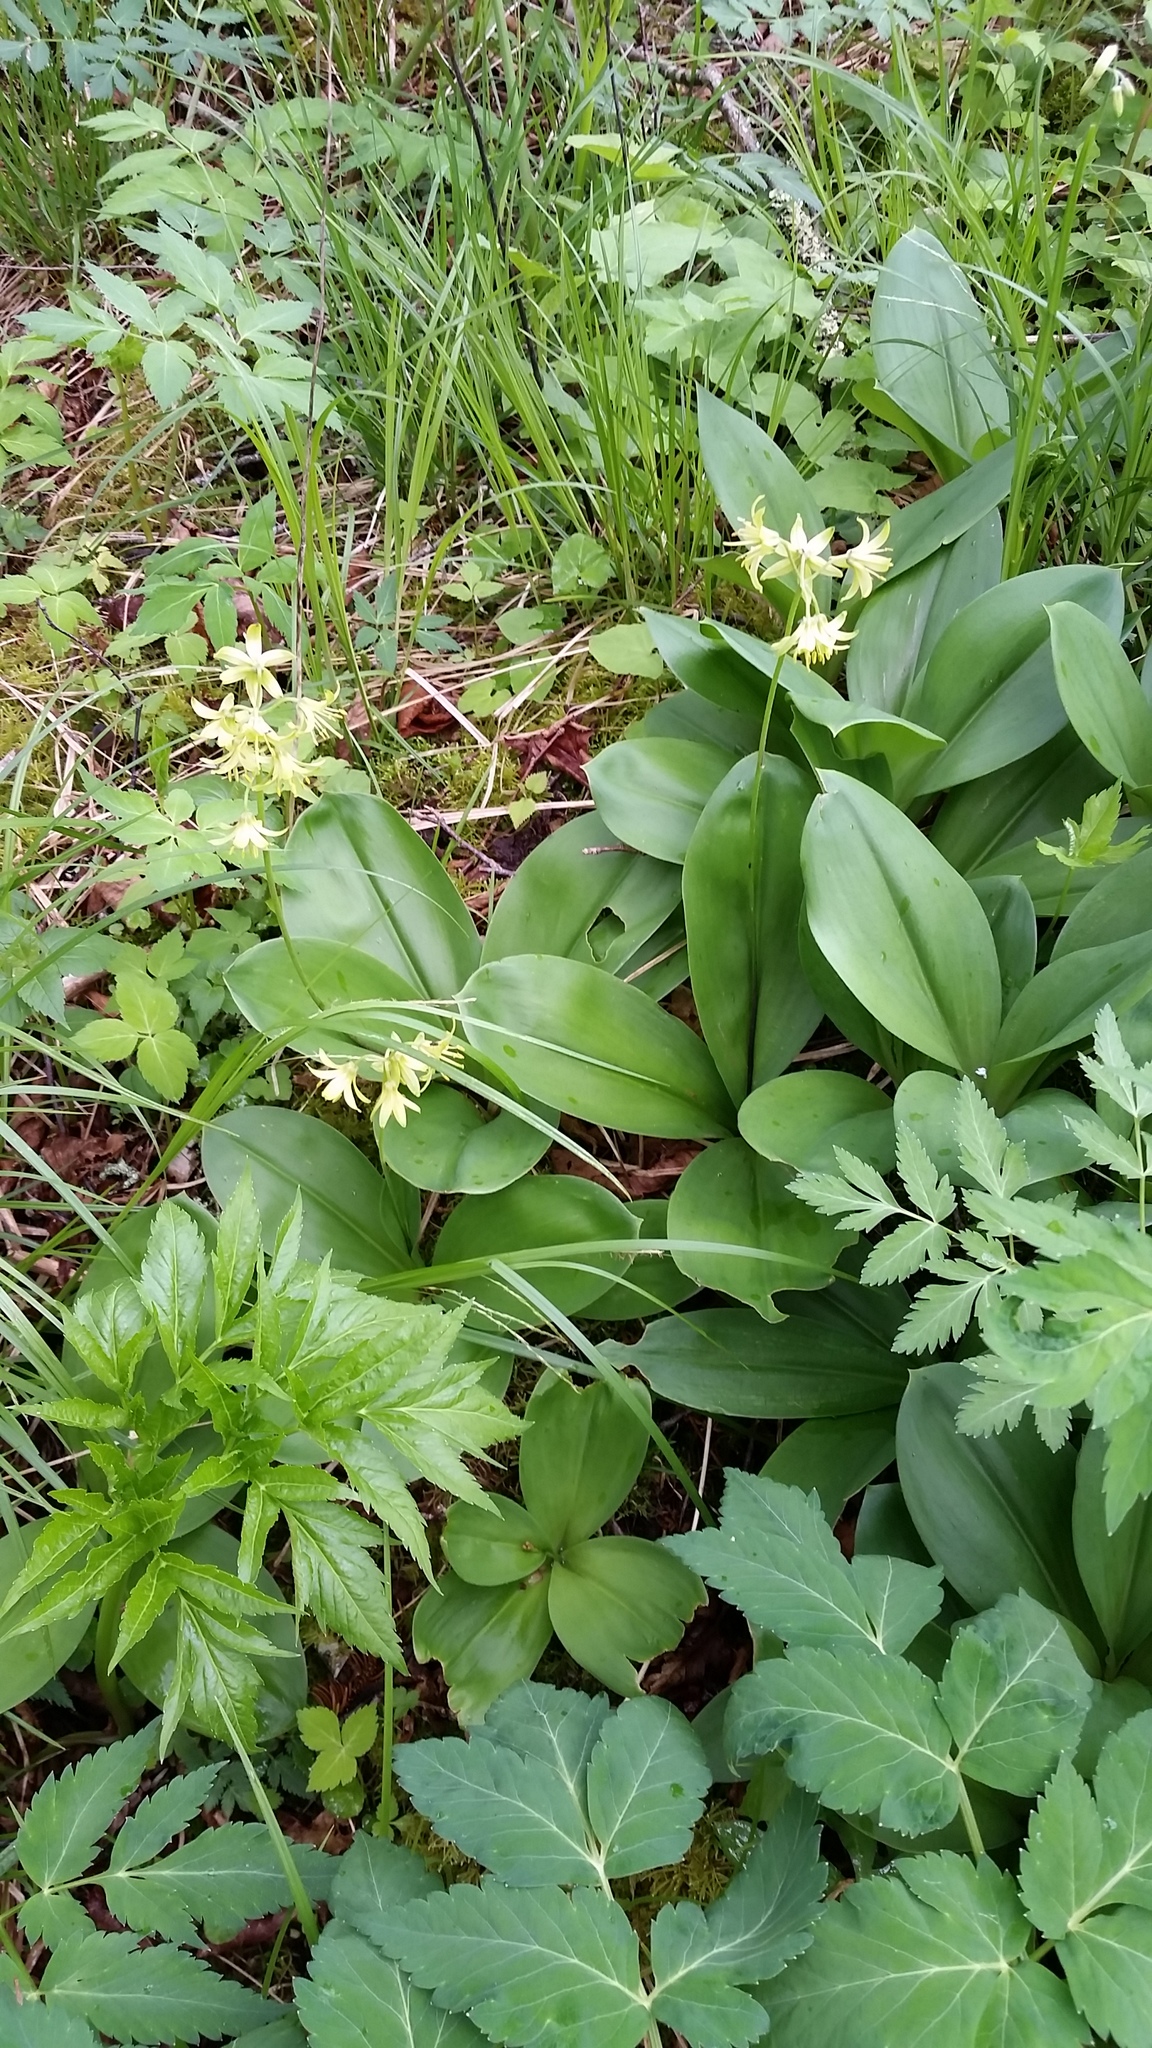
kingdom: Plantae
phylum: Tracheophyta
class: Liliopsida
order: Liliales
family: Liliaceae
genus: Clintonia
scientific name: Clintonia borealis
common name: Yellow clintonia
